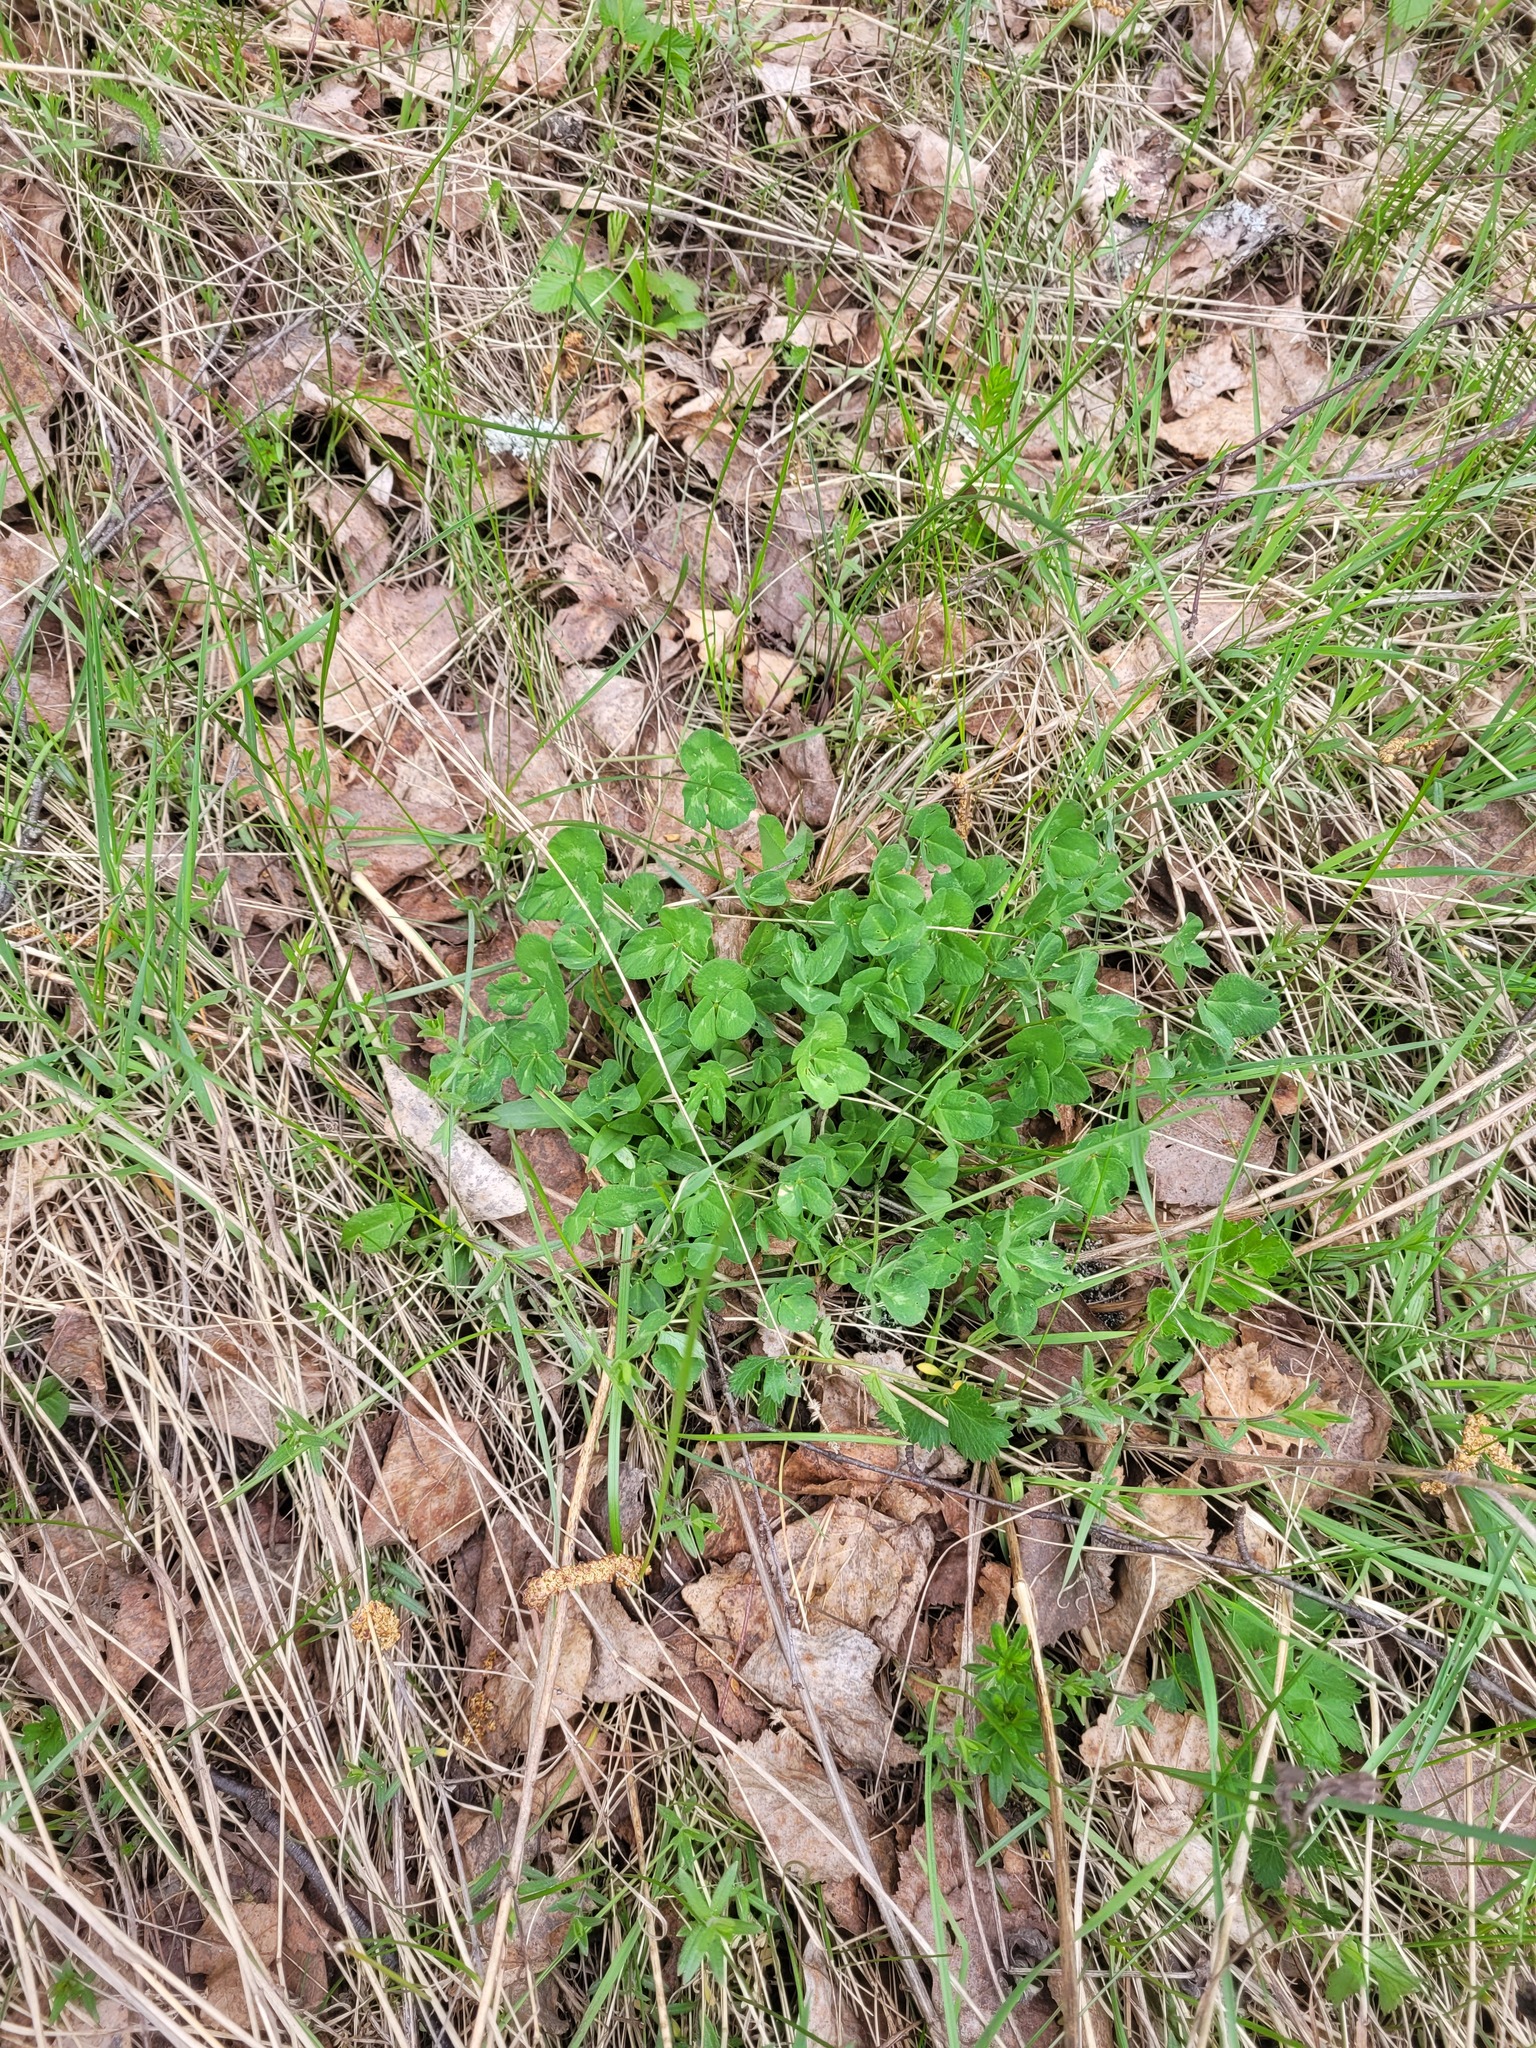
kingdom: Plantae
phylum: Tracheophyta
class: Magnoliopsida
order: Fabales
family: Fabaceae
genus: Trifolium
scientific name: Trifolium pratense
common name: Red clover
